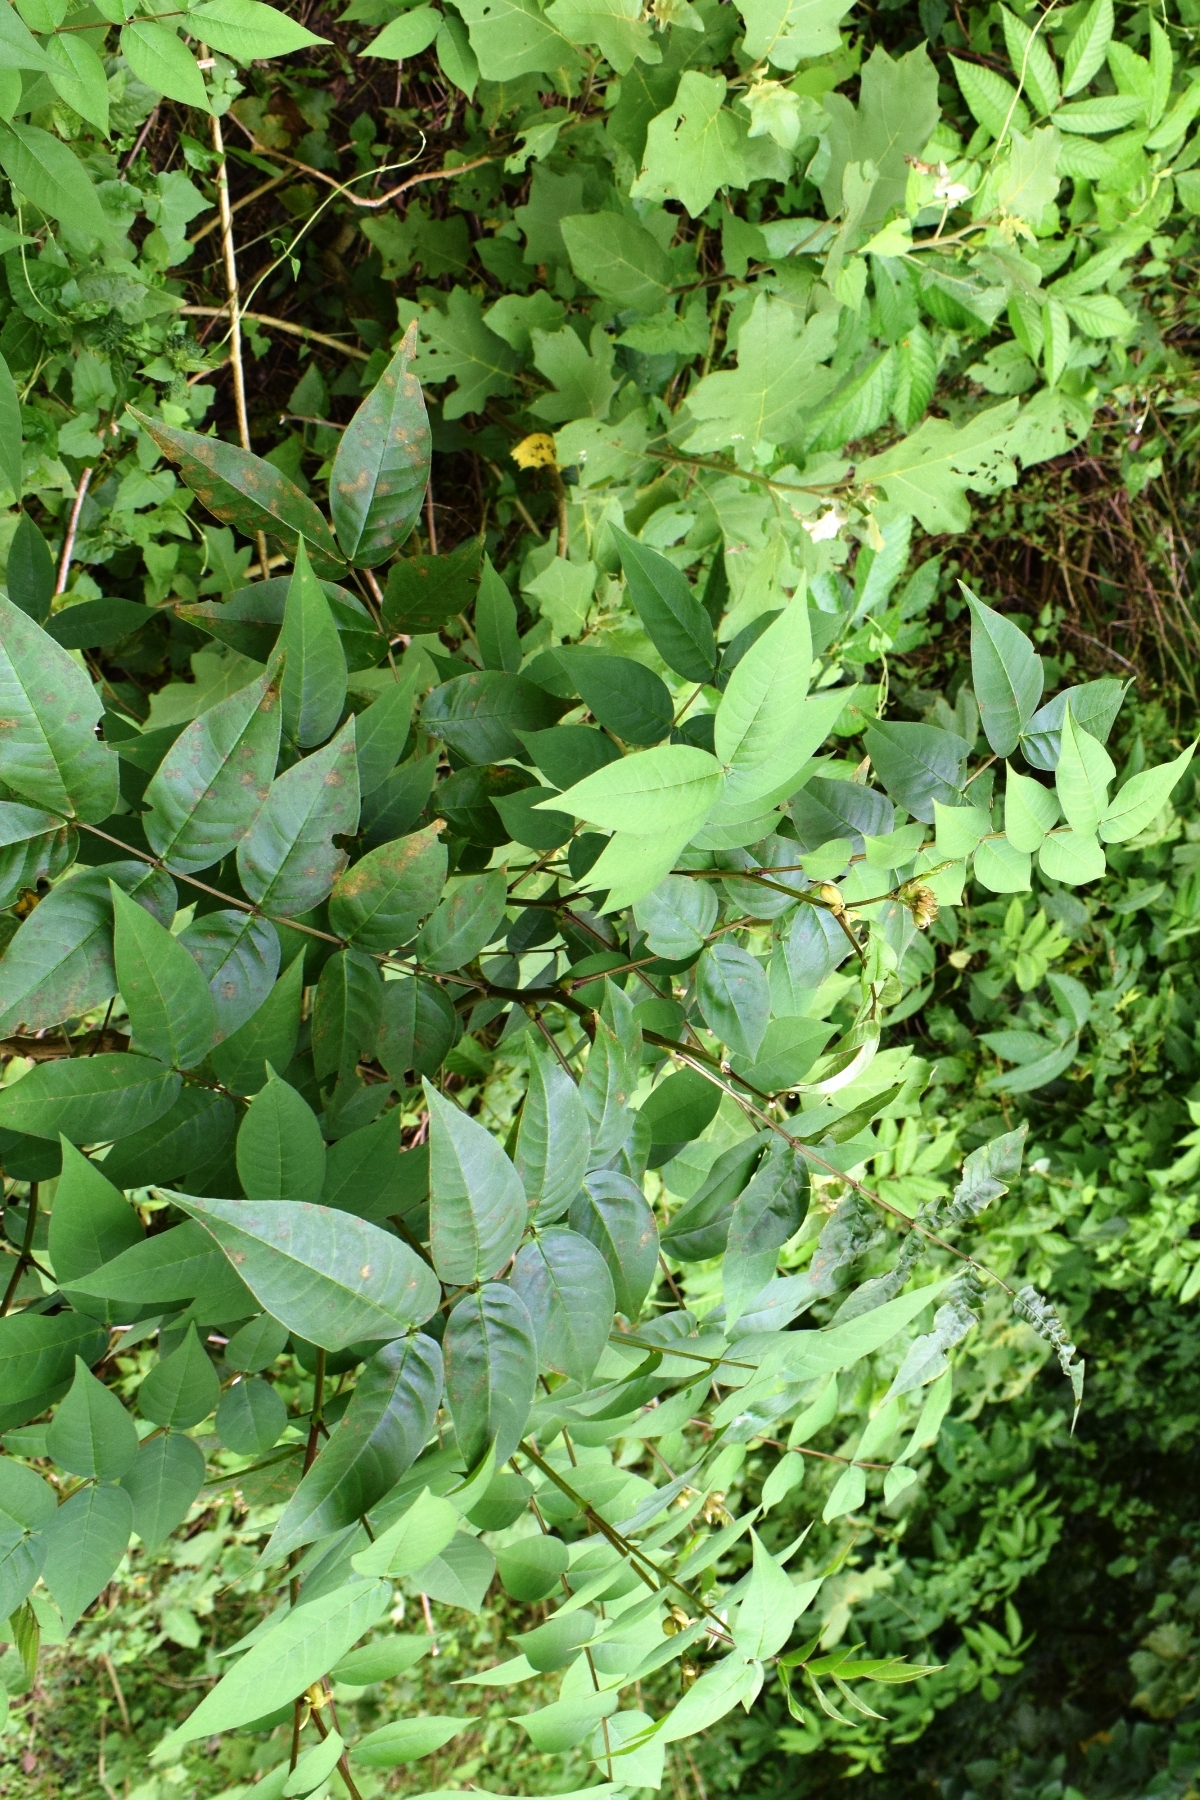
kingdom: Plantae
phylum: Tracheophyta
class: Magnoliopsida
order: Fabales
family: Fabaceae
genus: Senna
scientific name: Senna occidentalis
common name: Septicweed
